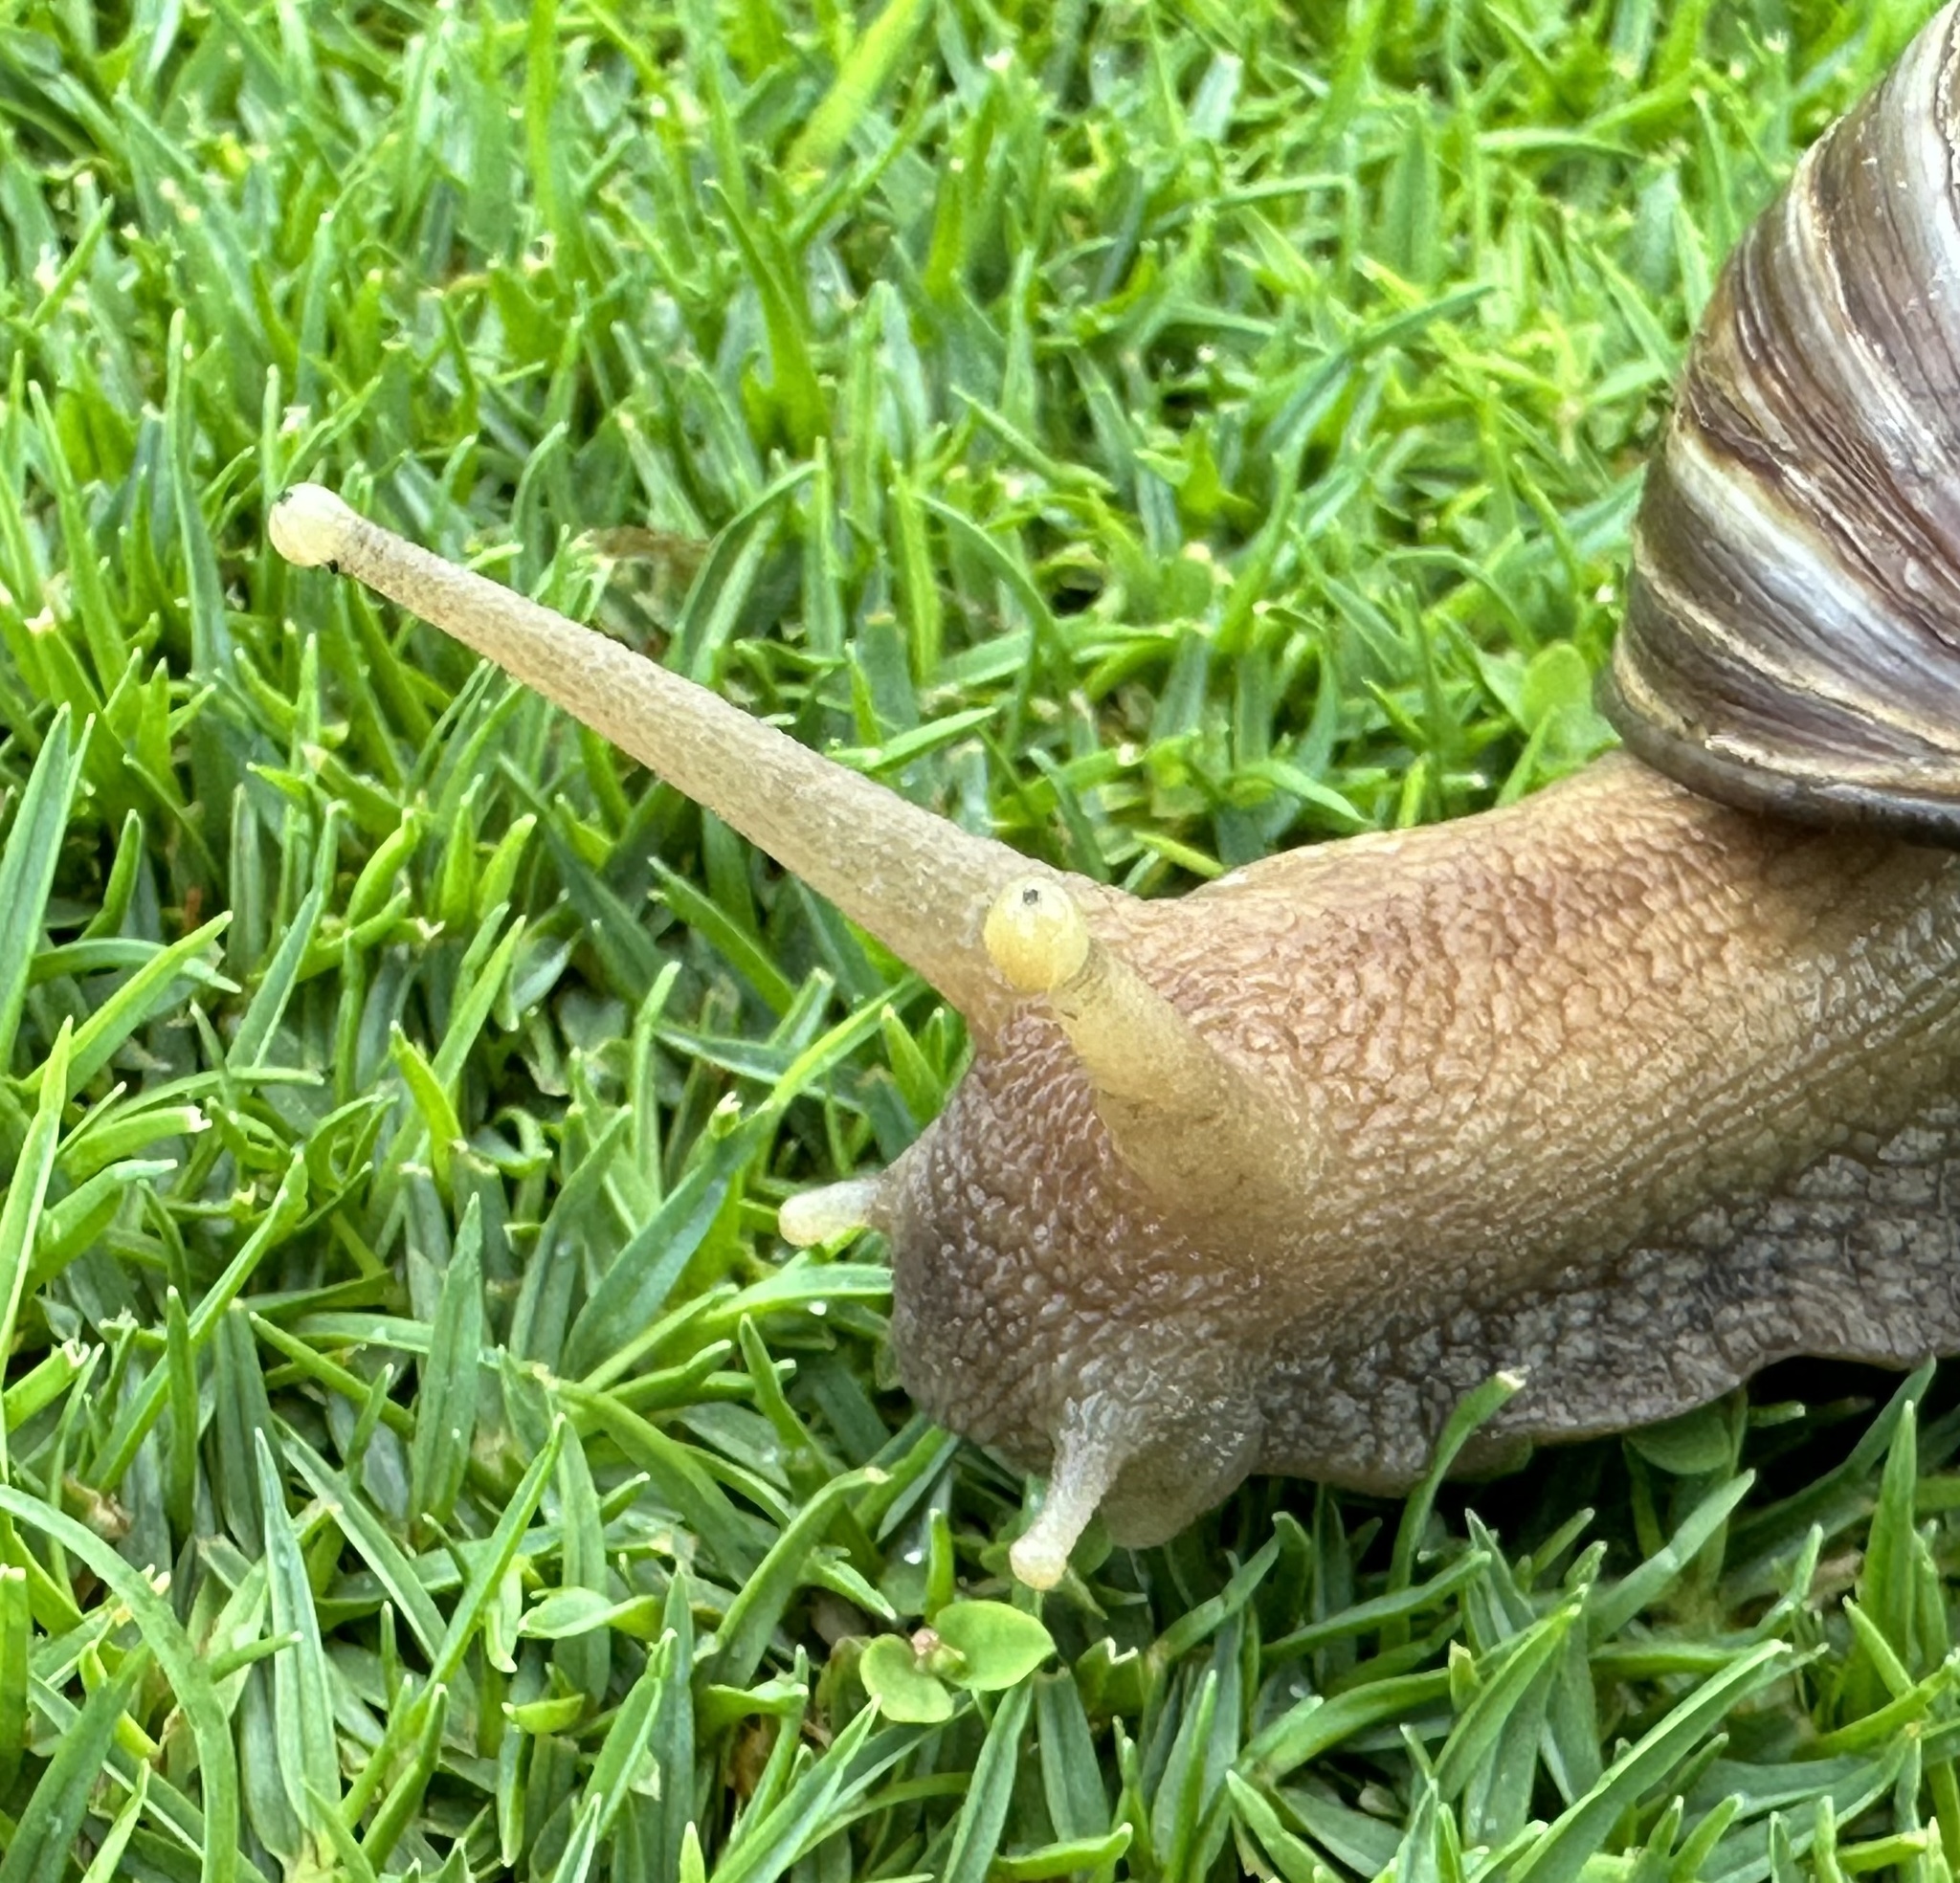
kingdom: Animalia
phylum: Mollusca
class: Gastropoda
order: Stylommatophora
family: Achatinidae
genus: Lissachatina
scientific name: Lissachatina fulica
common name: Giant african snail
